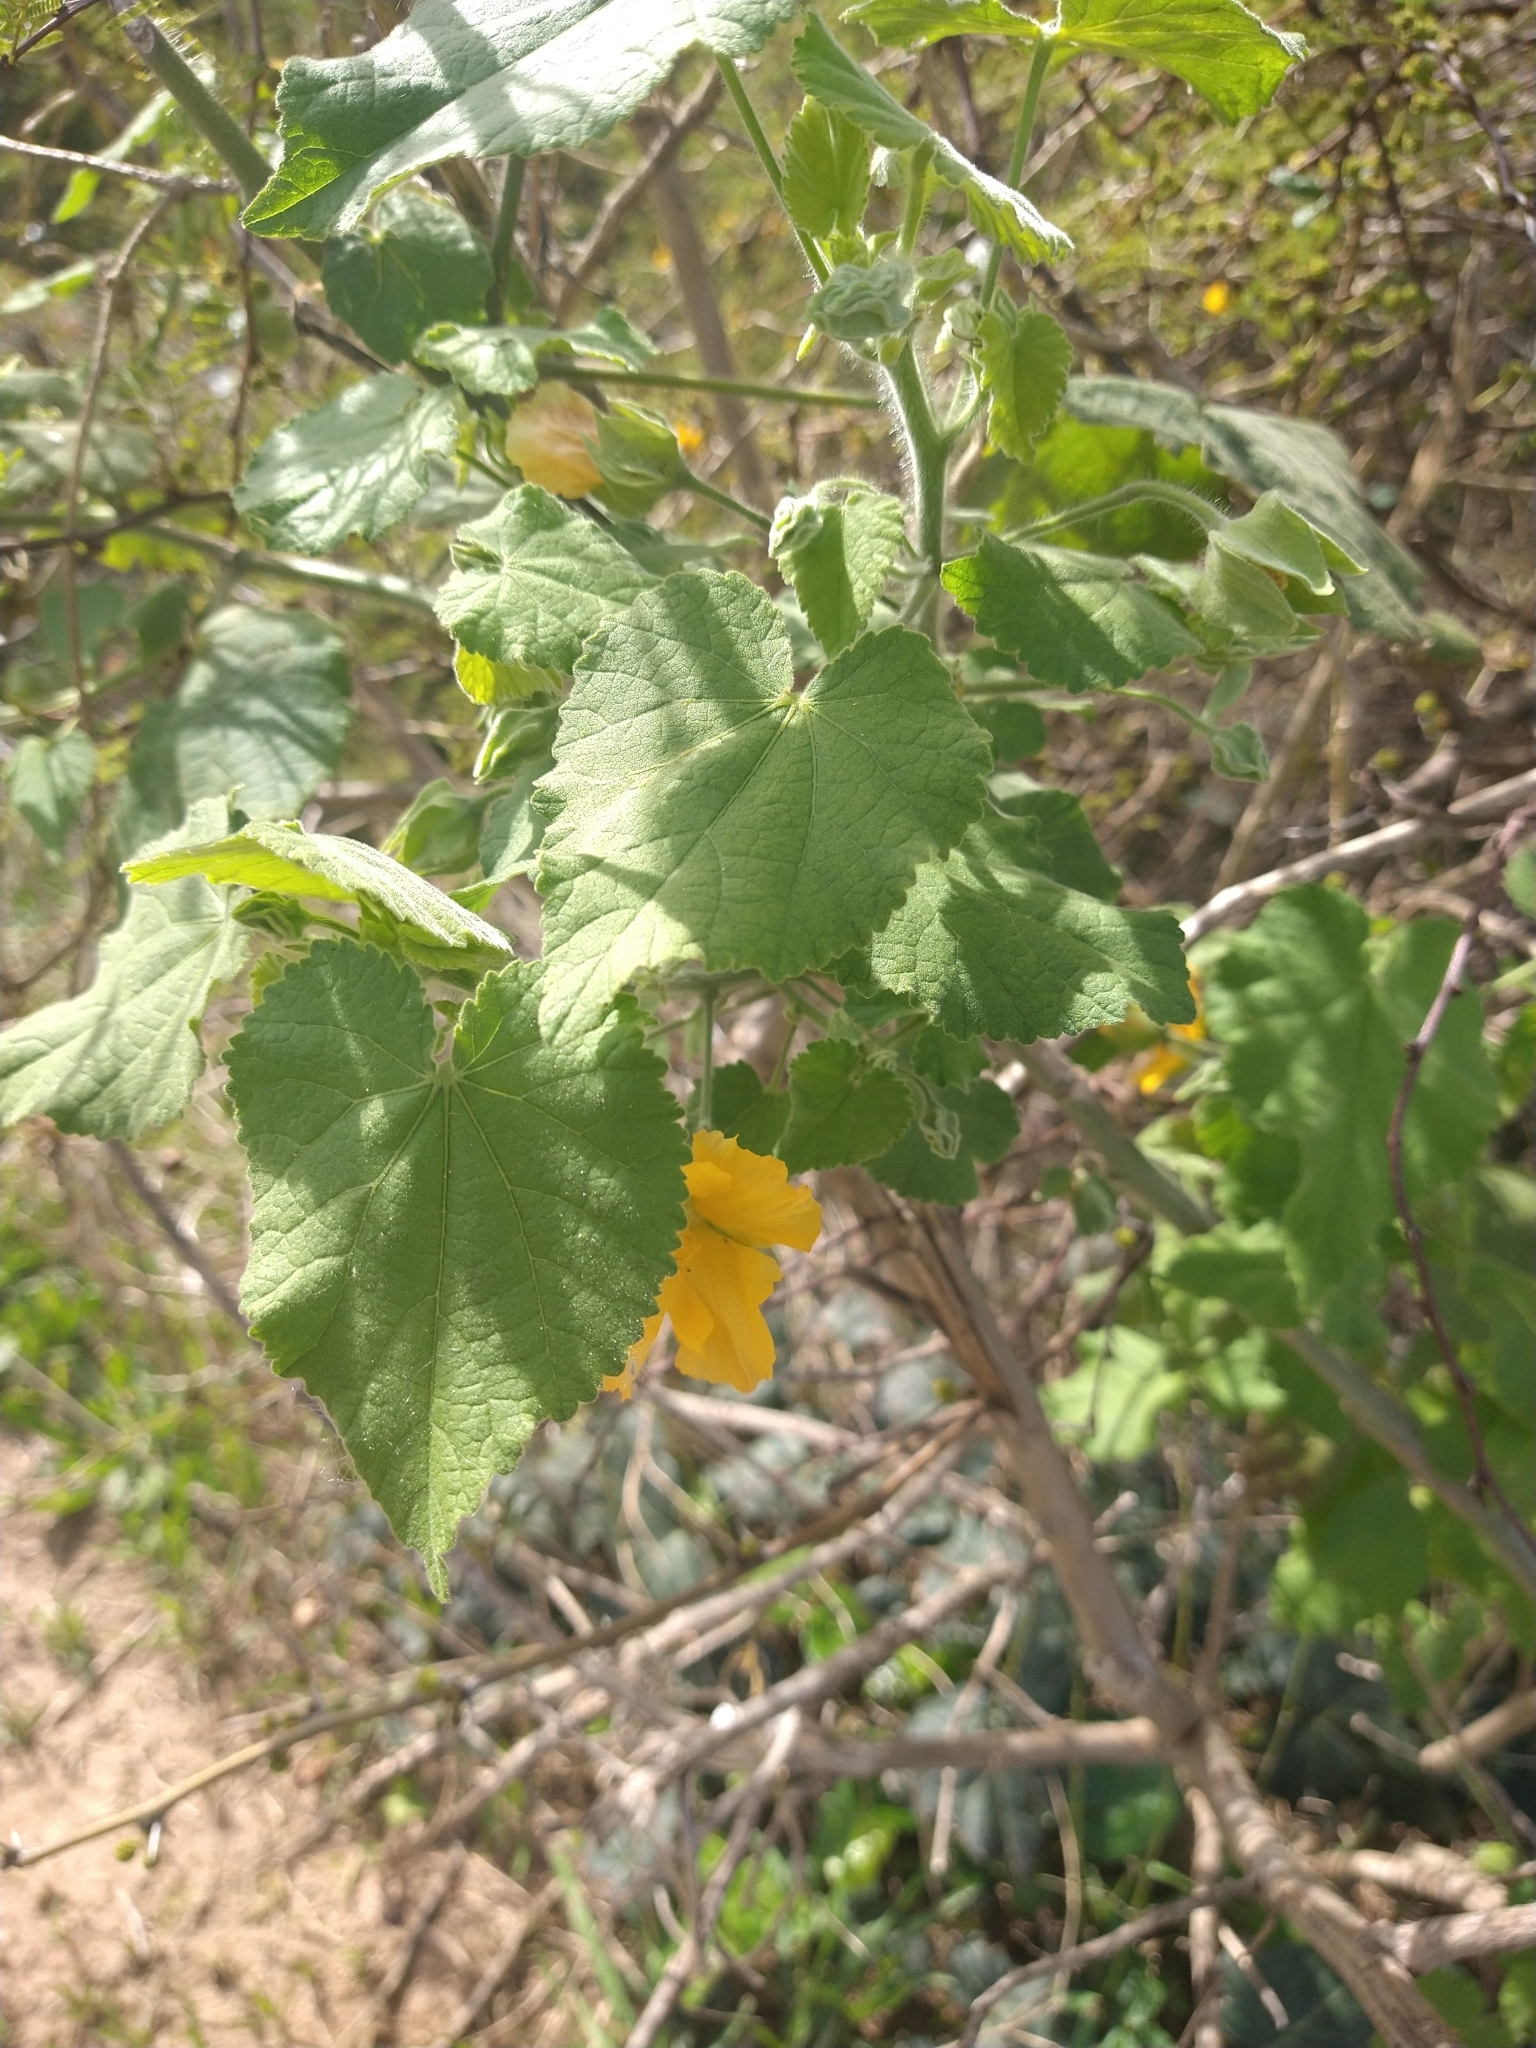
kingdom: Plantae
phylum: Tracheophyta
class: Magnoliopsida
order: Malvales
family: Malvaceae
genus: Abutilon
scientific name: Abutilon grandifolium
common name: Hairy abutilon
